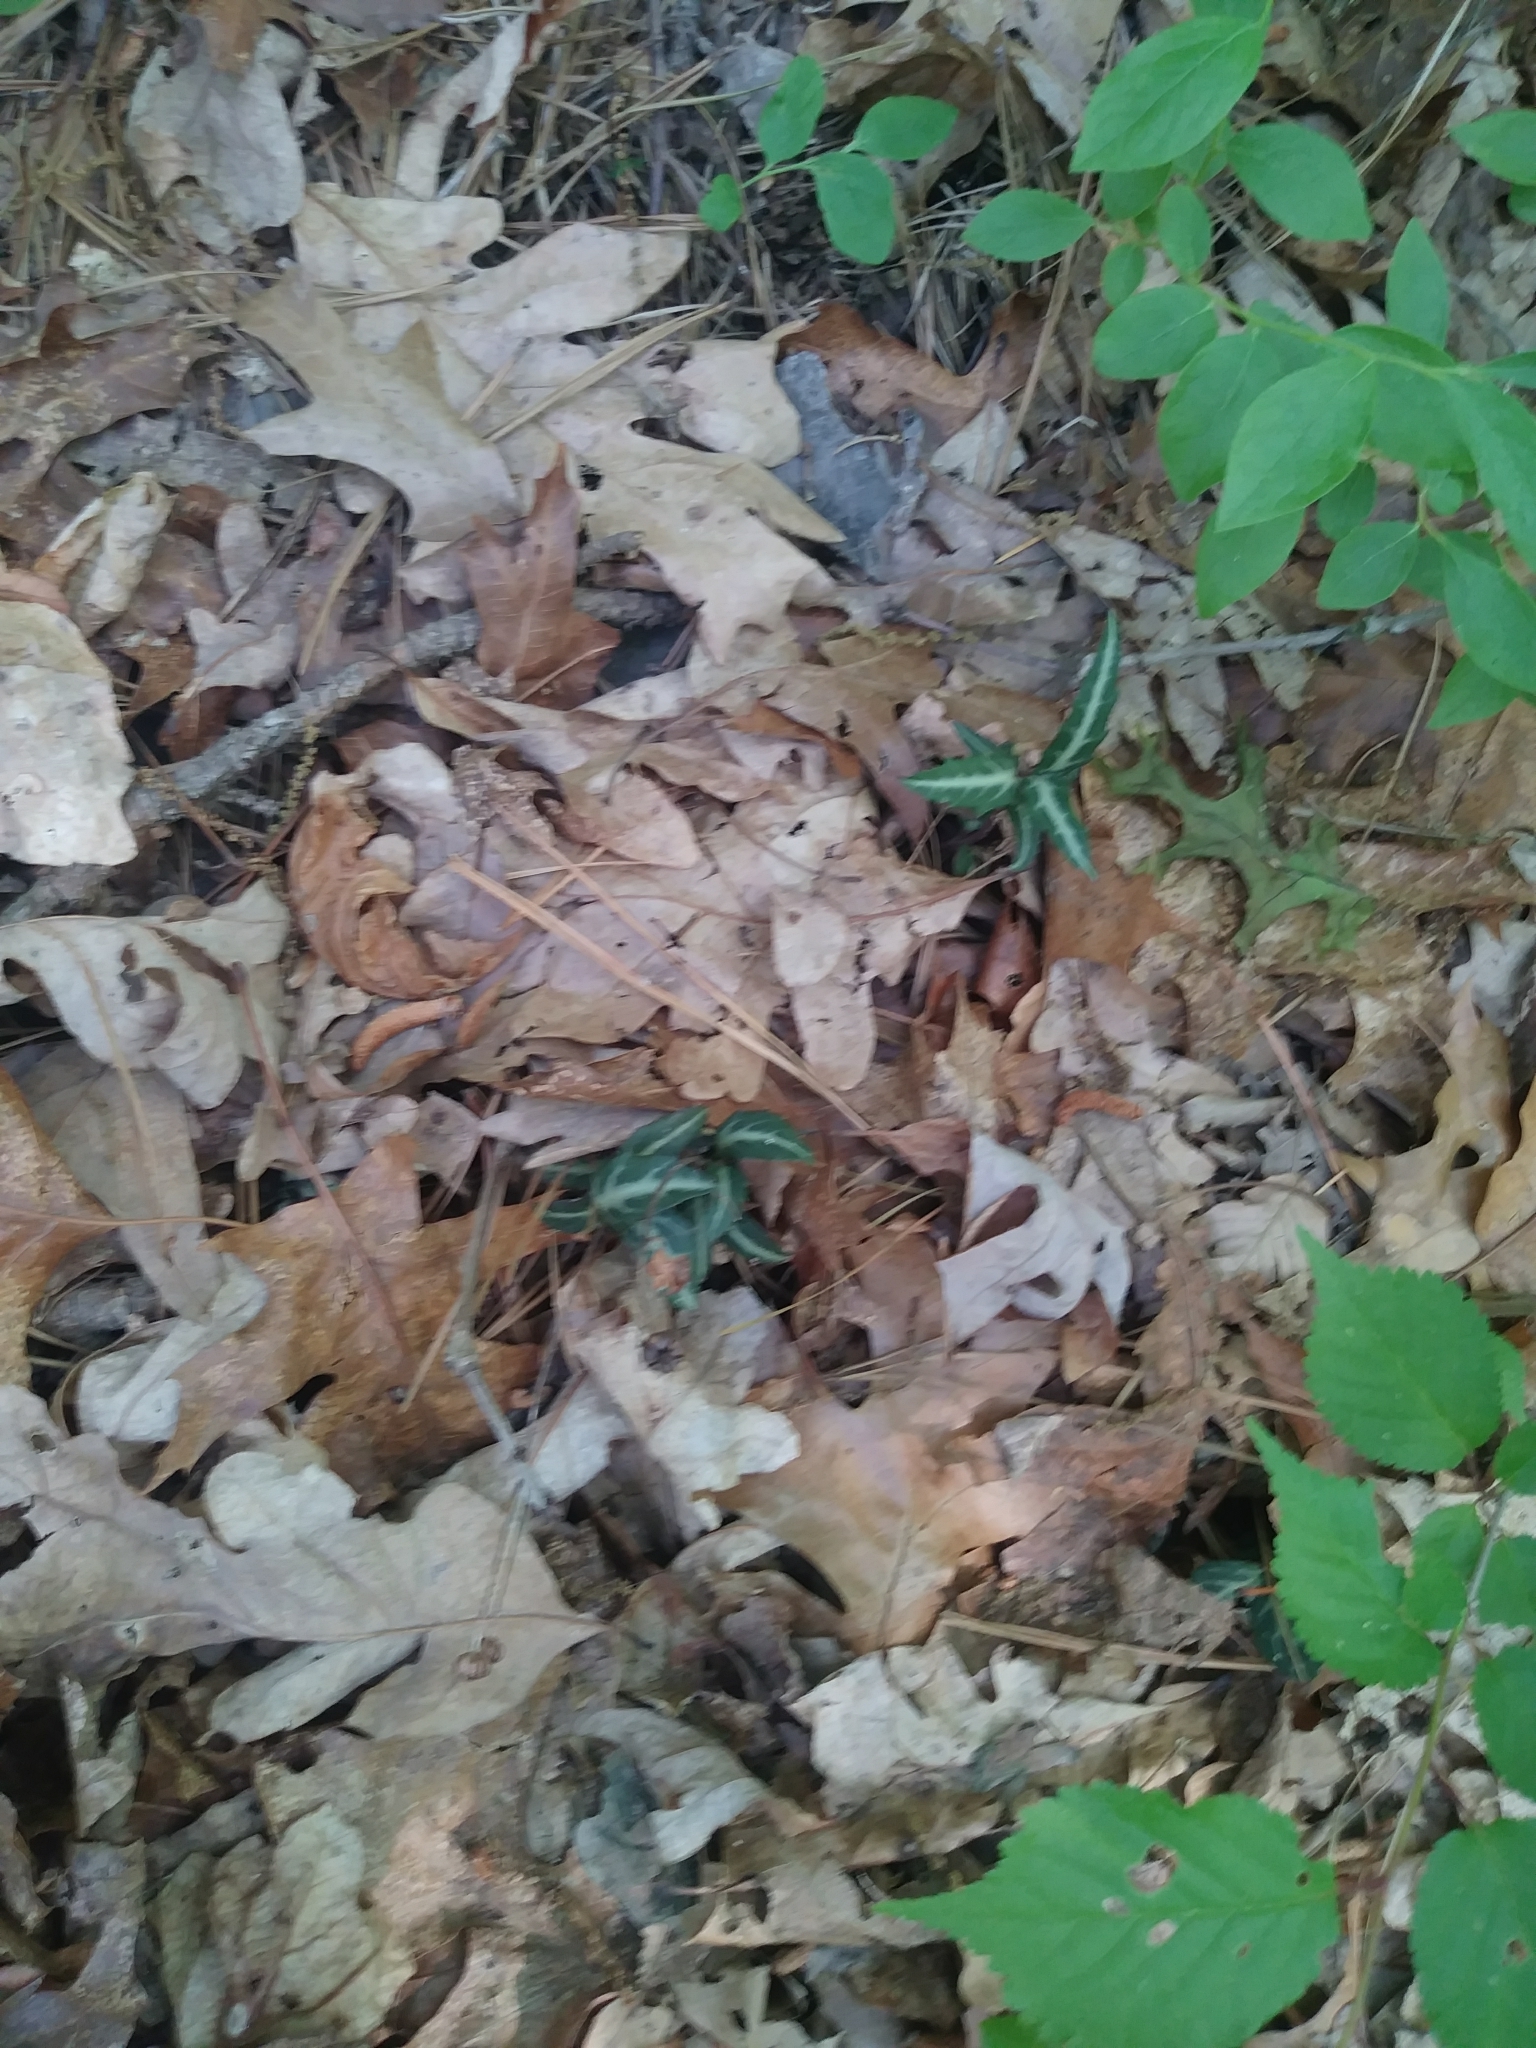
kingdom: Plantae
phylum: Tracheophyta
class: Magnoliopsida
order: Ericales
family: Ericaceae
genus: Chimaphila
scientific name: Chimaphila maculata
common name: Spotted pipsissewa
